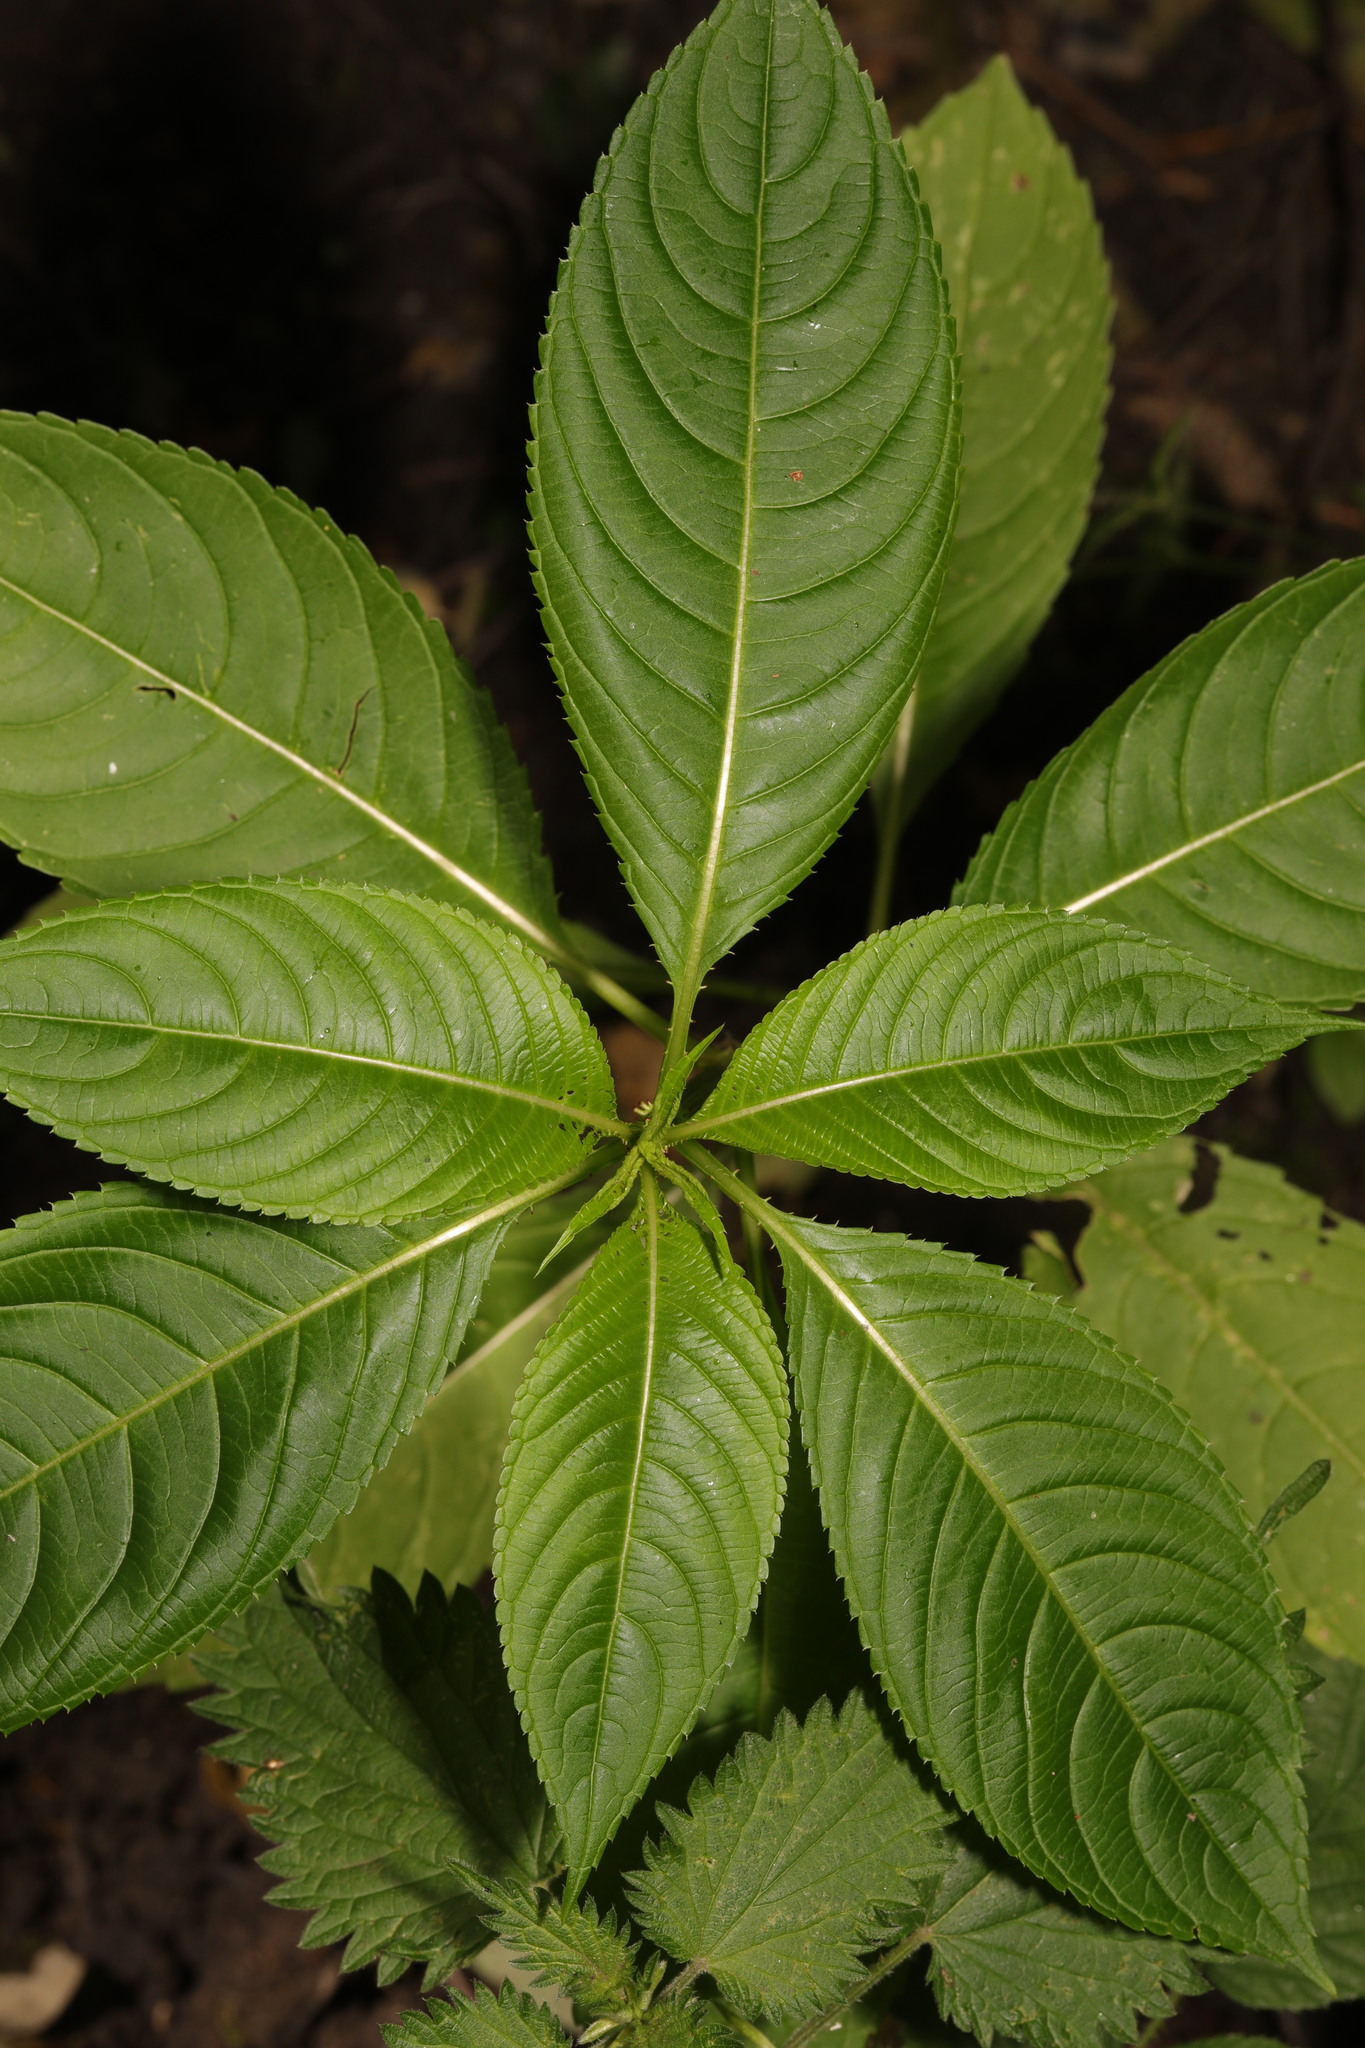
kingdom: Plantae
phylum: Tracheophyta
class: Magnoliopsida
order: Ericales
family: Balsaminaceae
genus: Impatiens
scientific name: Impatiens glandulifera
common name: Himalayan balsam
